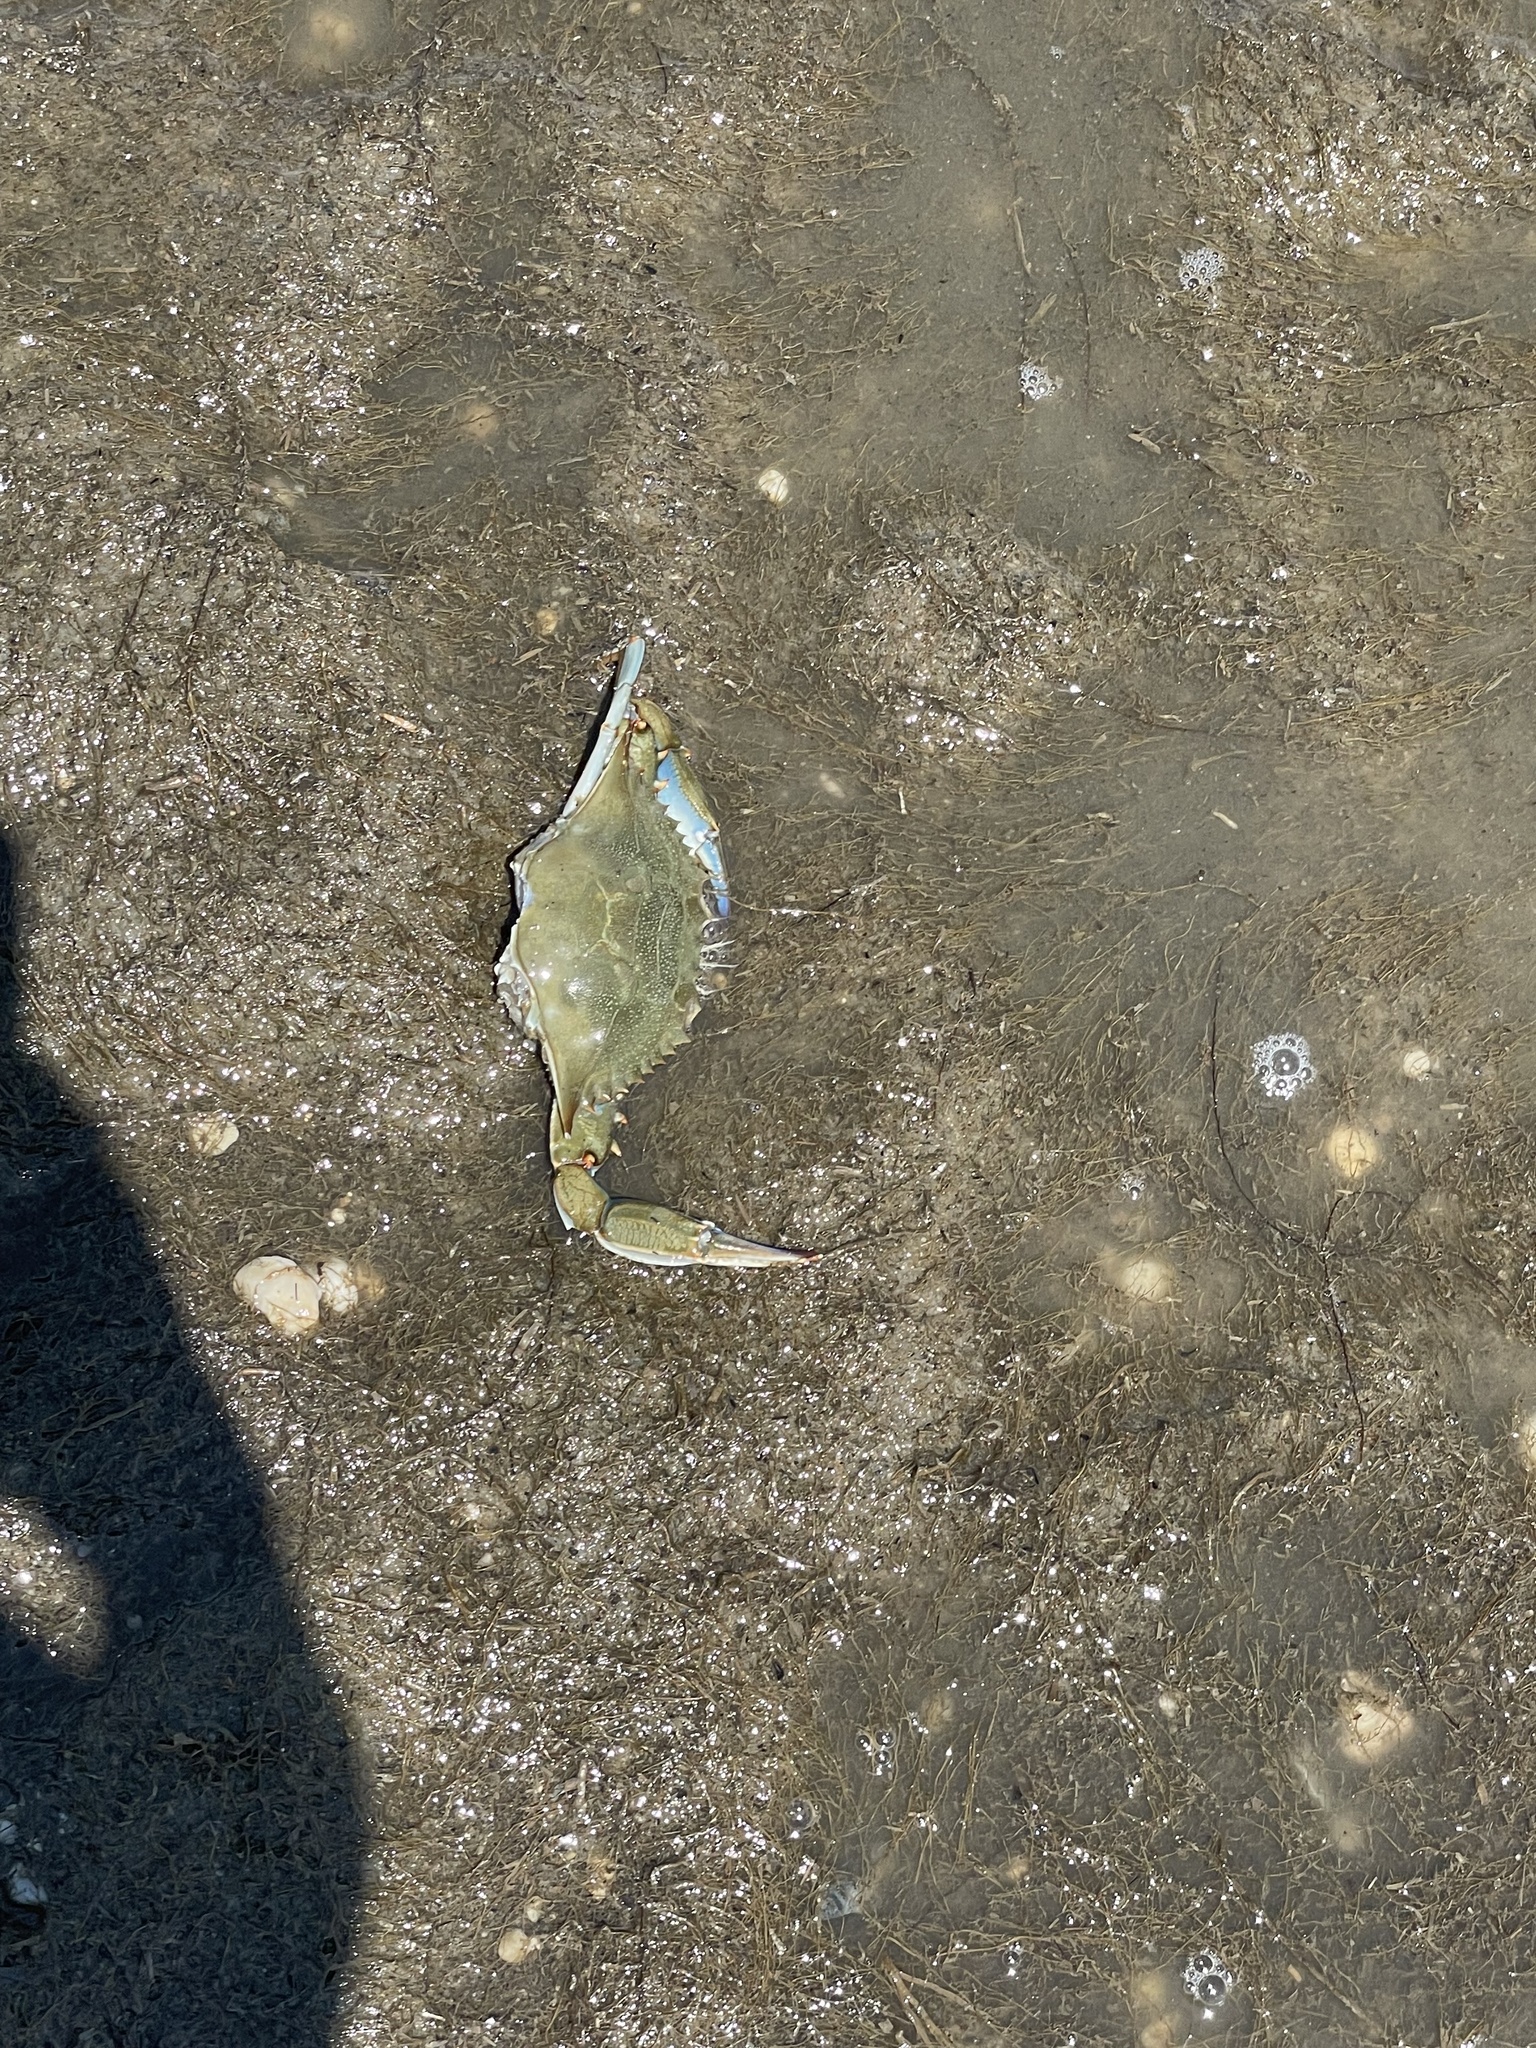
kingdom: Animalia
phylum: Arthropoda
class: Malacostraca
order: Decapoda
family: Portunidae
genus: Callinectes
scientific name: Callinectes sapidus
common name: Blue crab
